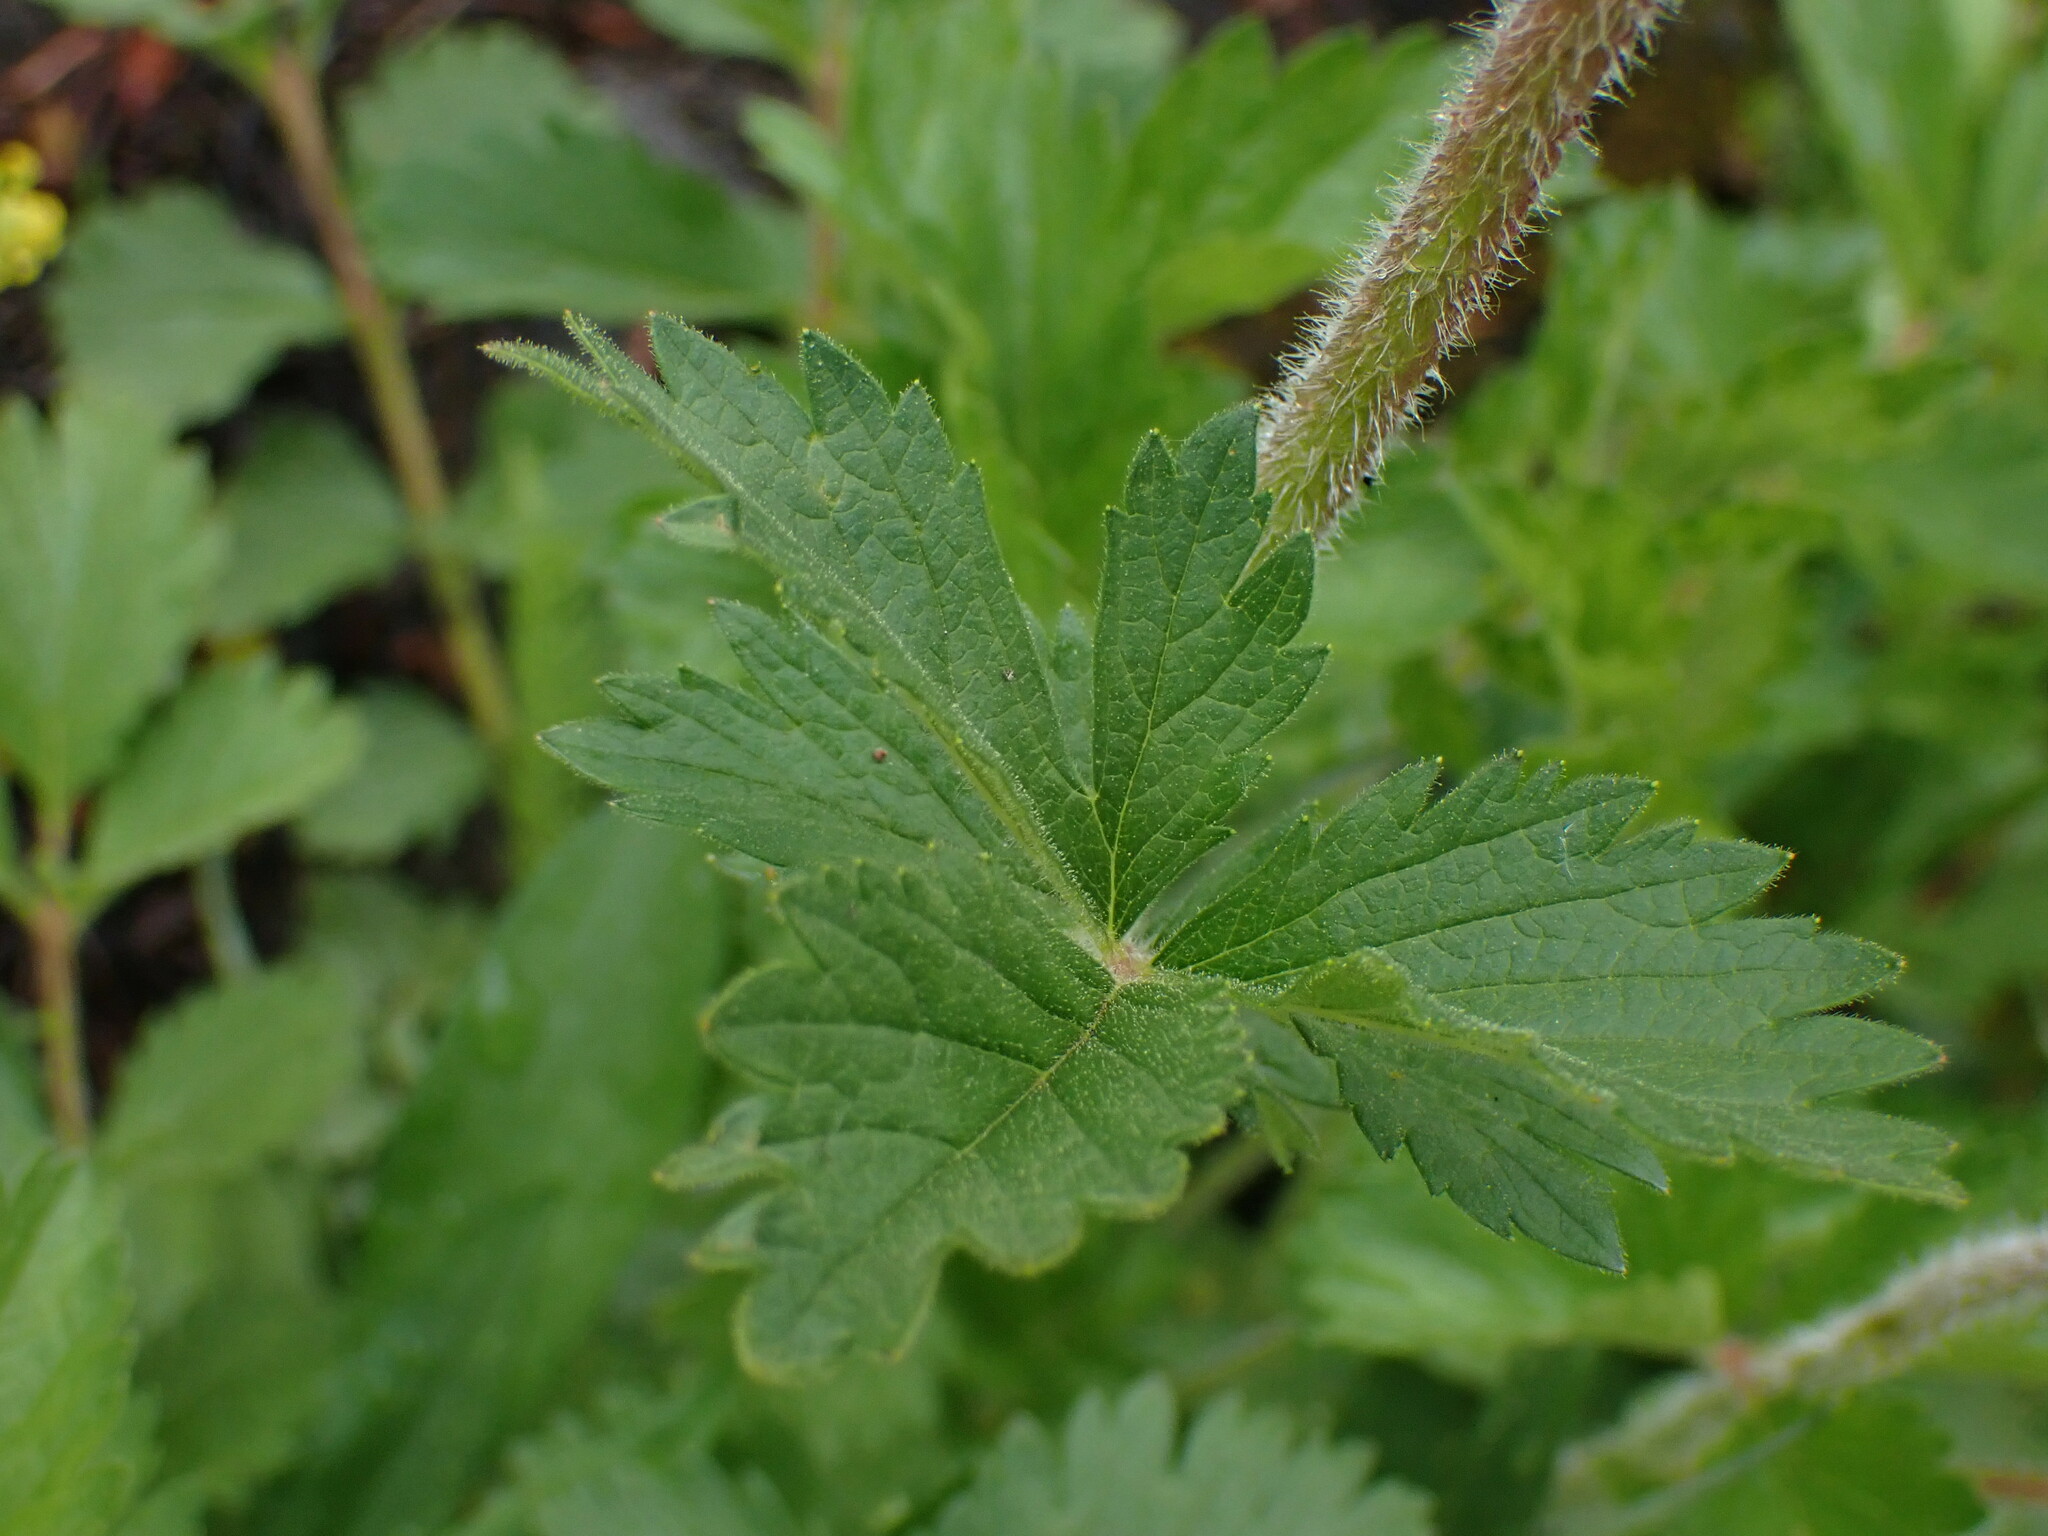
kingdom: Plantae
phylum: Tracheophyta
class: Magnoliopsida
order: Rosales
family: Rosaceae
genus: Drymocallis
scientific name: Drymocallis convallaria
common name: Cream cinquefoil
